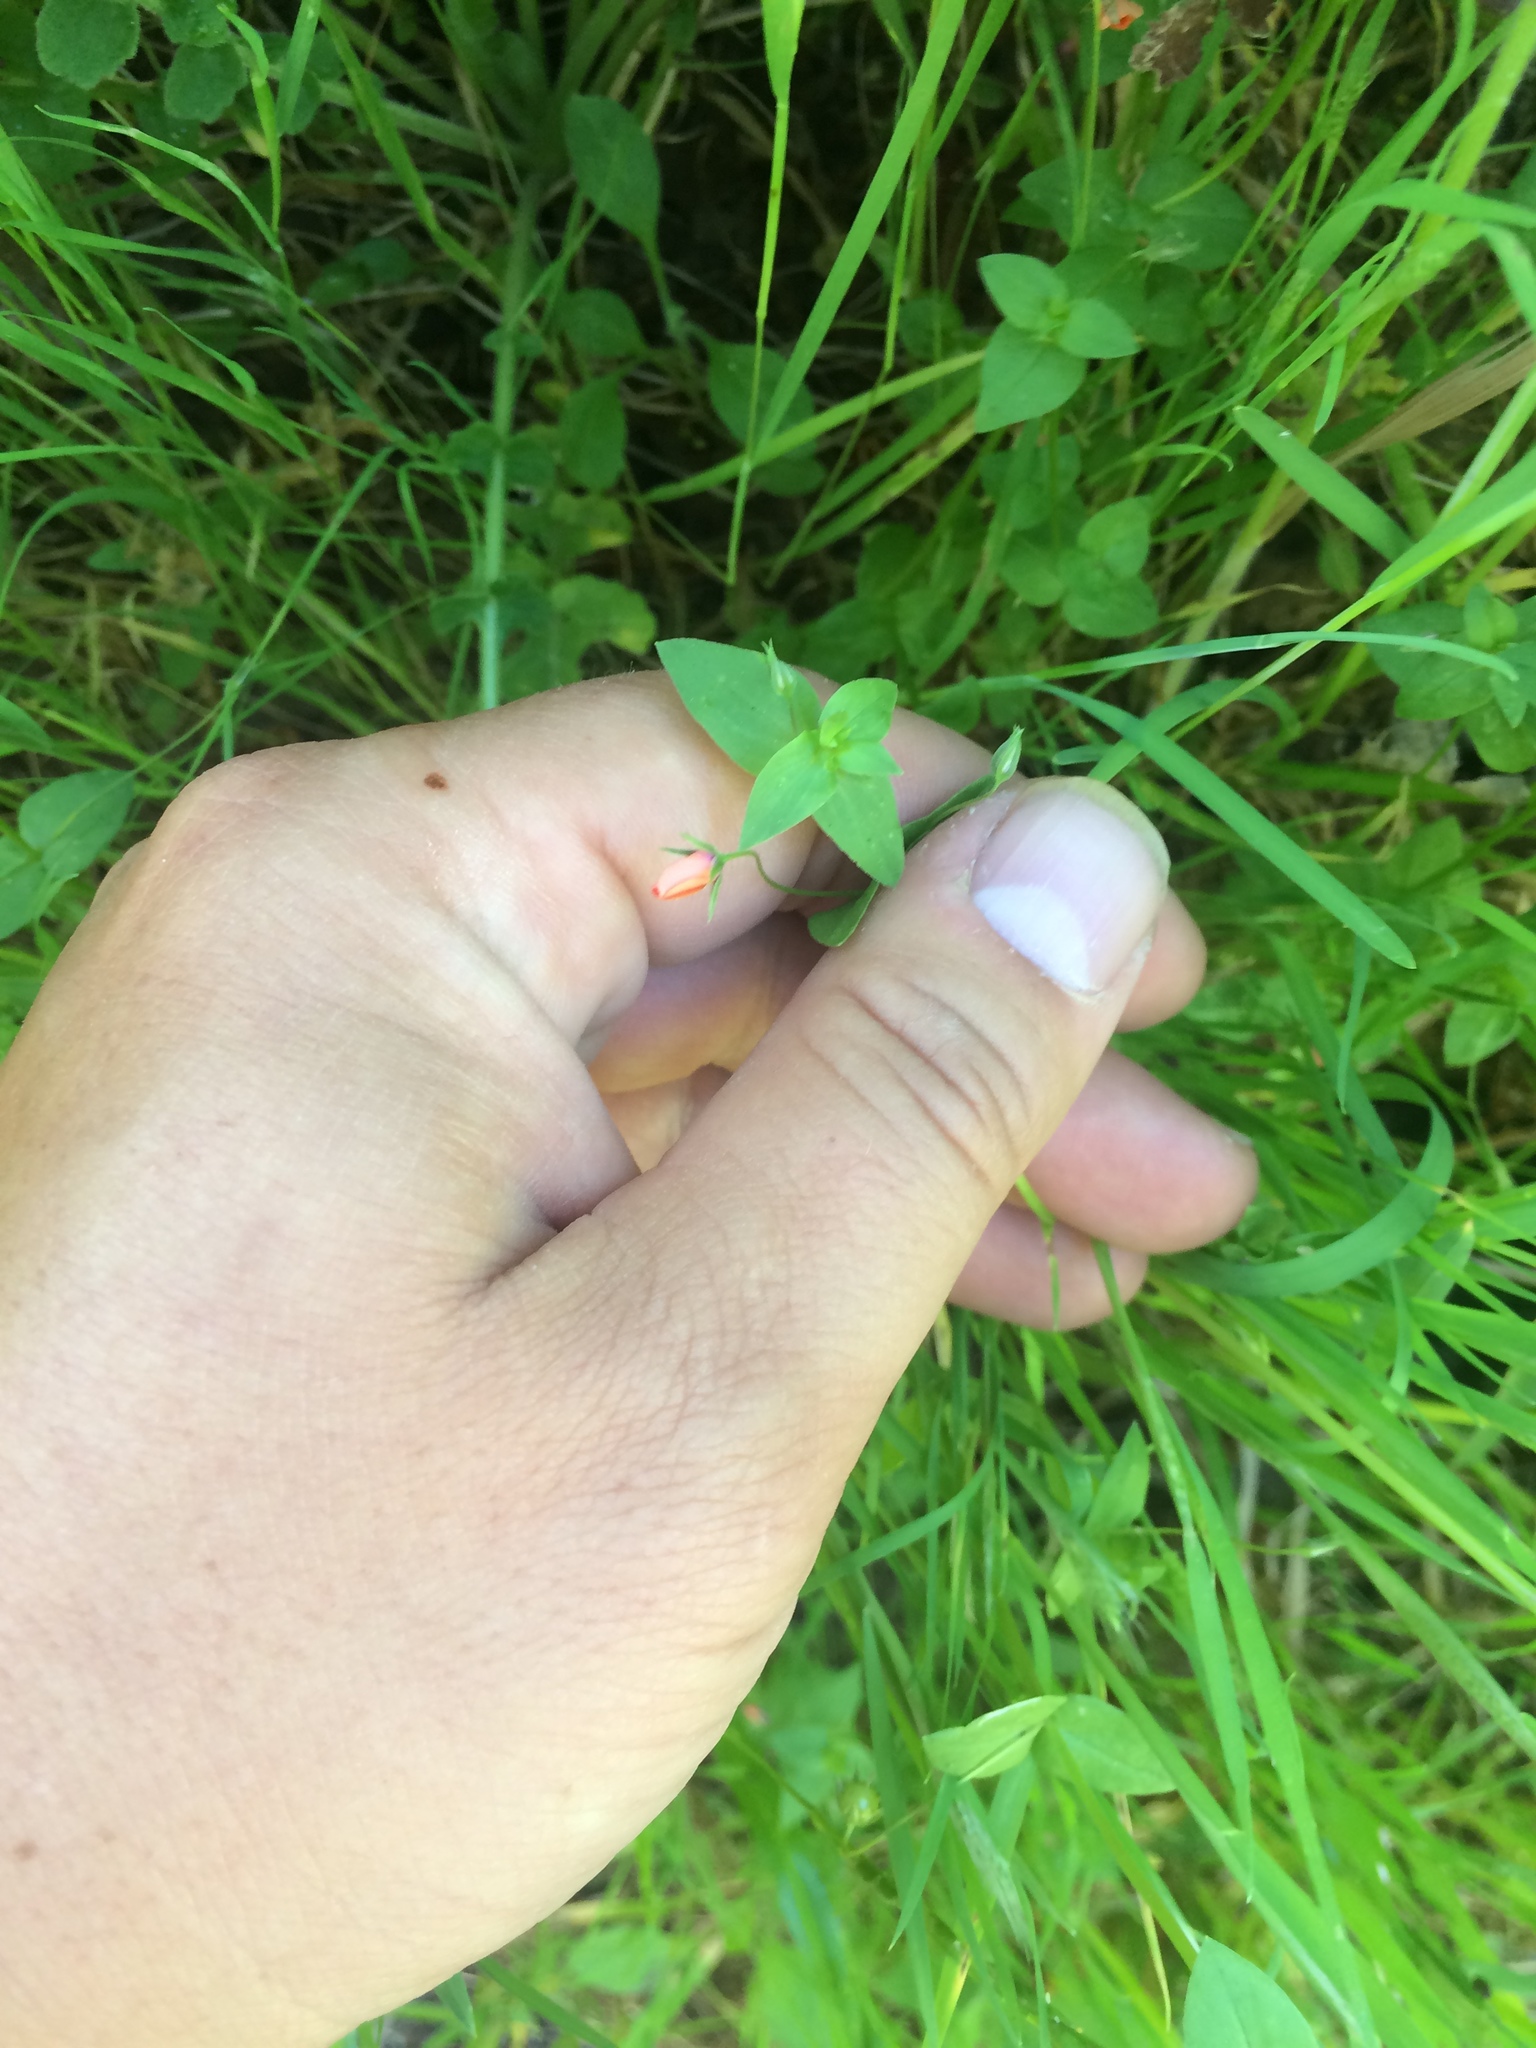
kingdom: Plantae
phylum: Tracheophyta
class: Magnoliopsida
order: Ericales
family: Primulaceae
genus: Lysimachia
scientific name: Lysimachia arvensis
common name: Scarlet pimpernel
